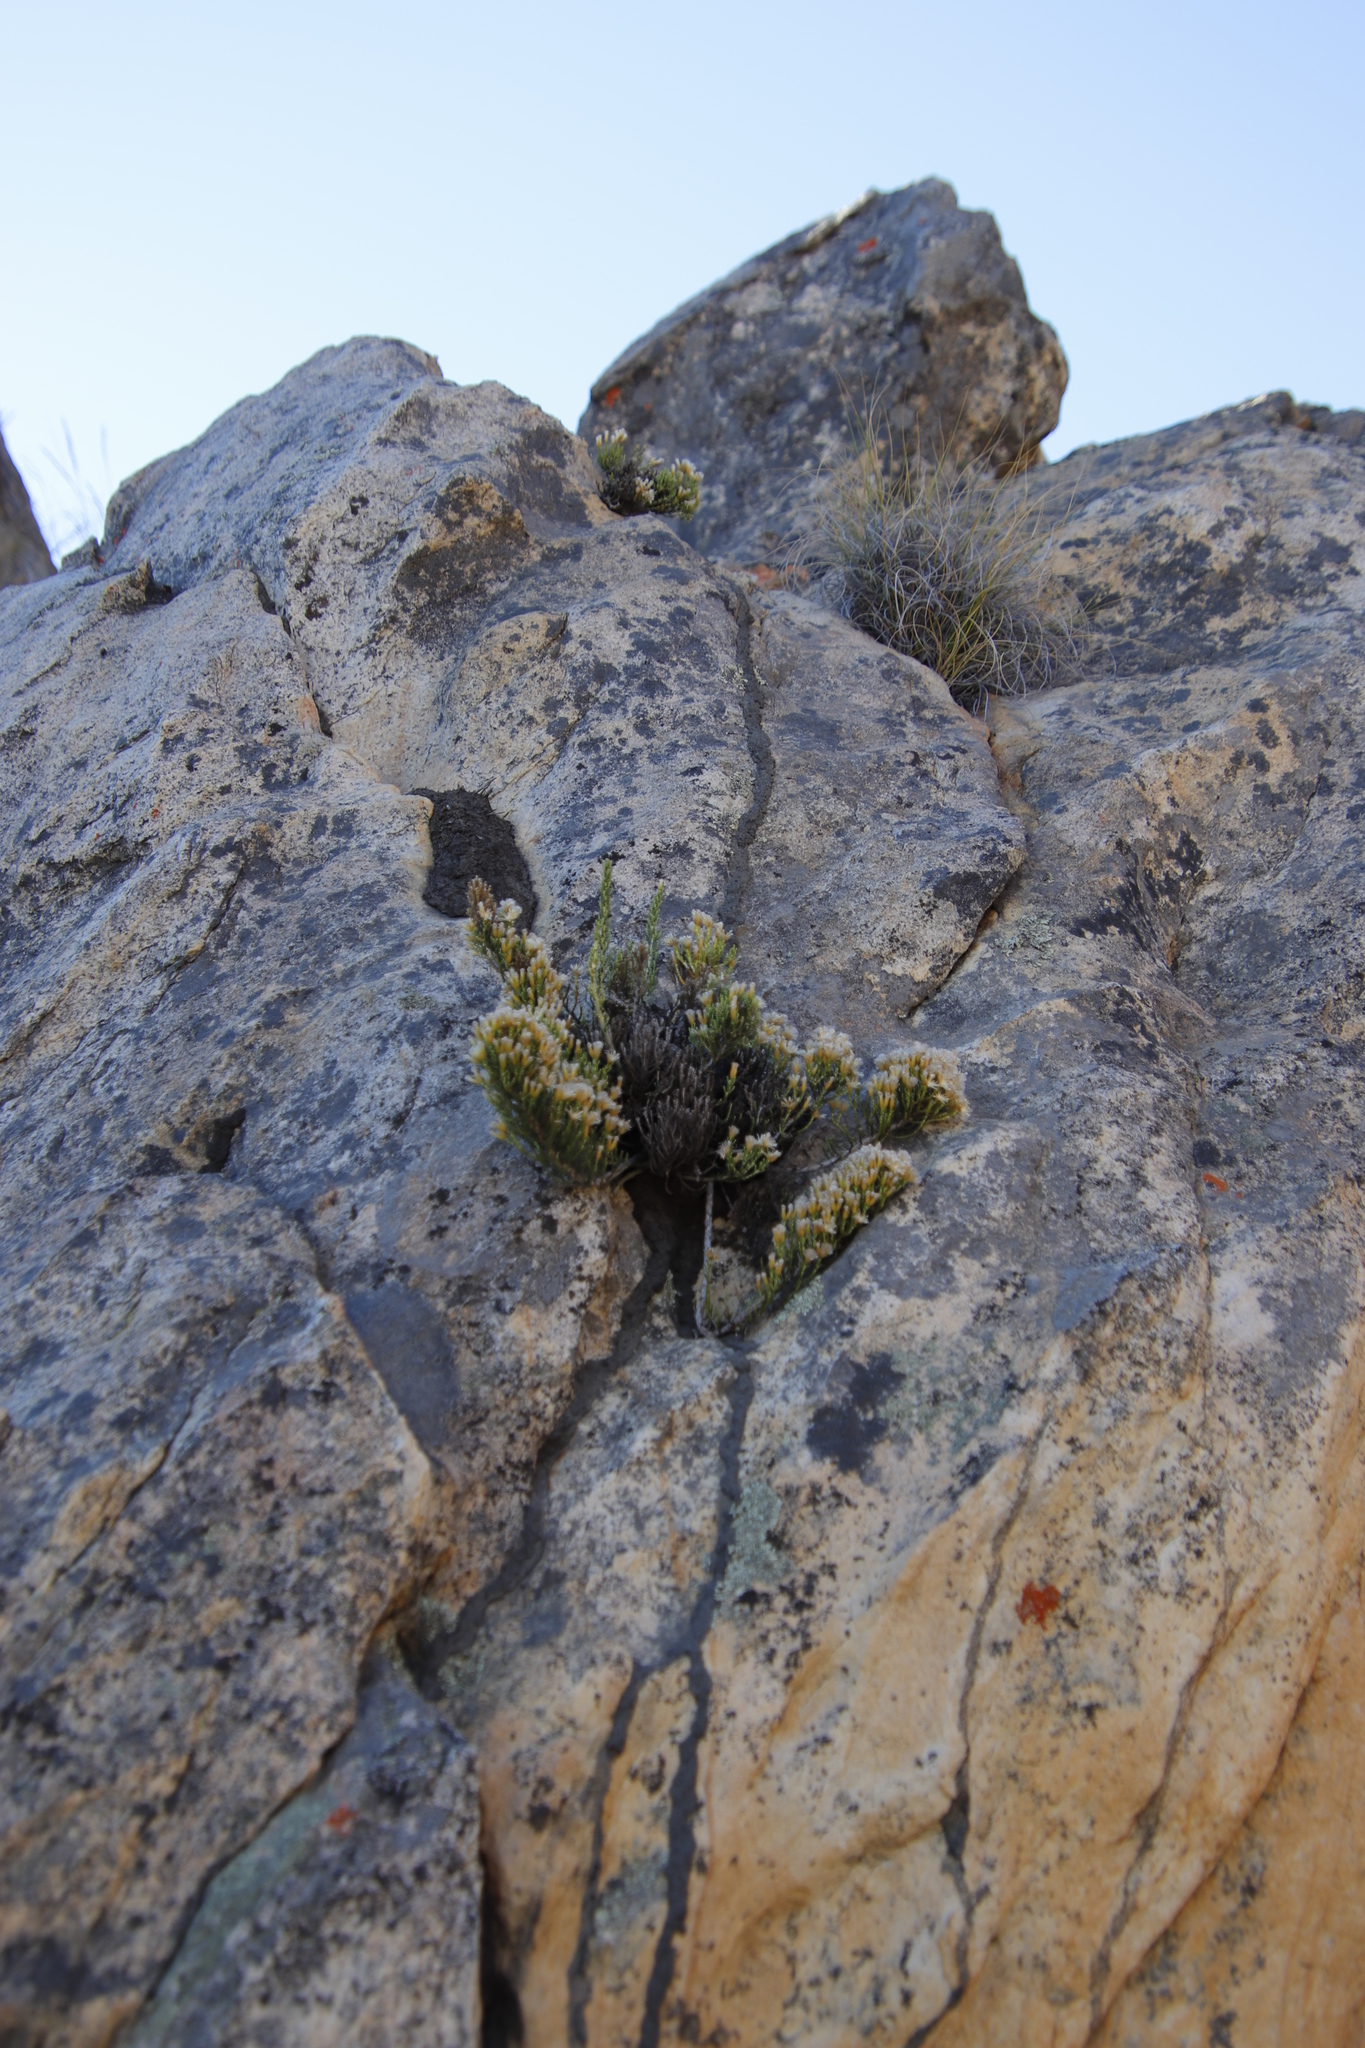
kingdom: Plantae
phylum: Tracheophyta
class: Magnoliopsida
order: Asterales
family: Asteraceae
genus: Dolichothrix
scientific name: Dolichothrix ericoides
